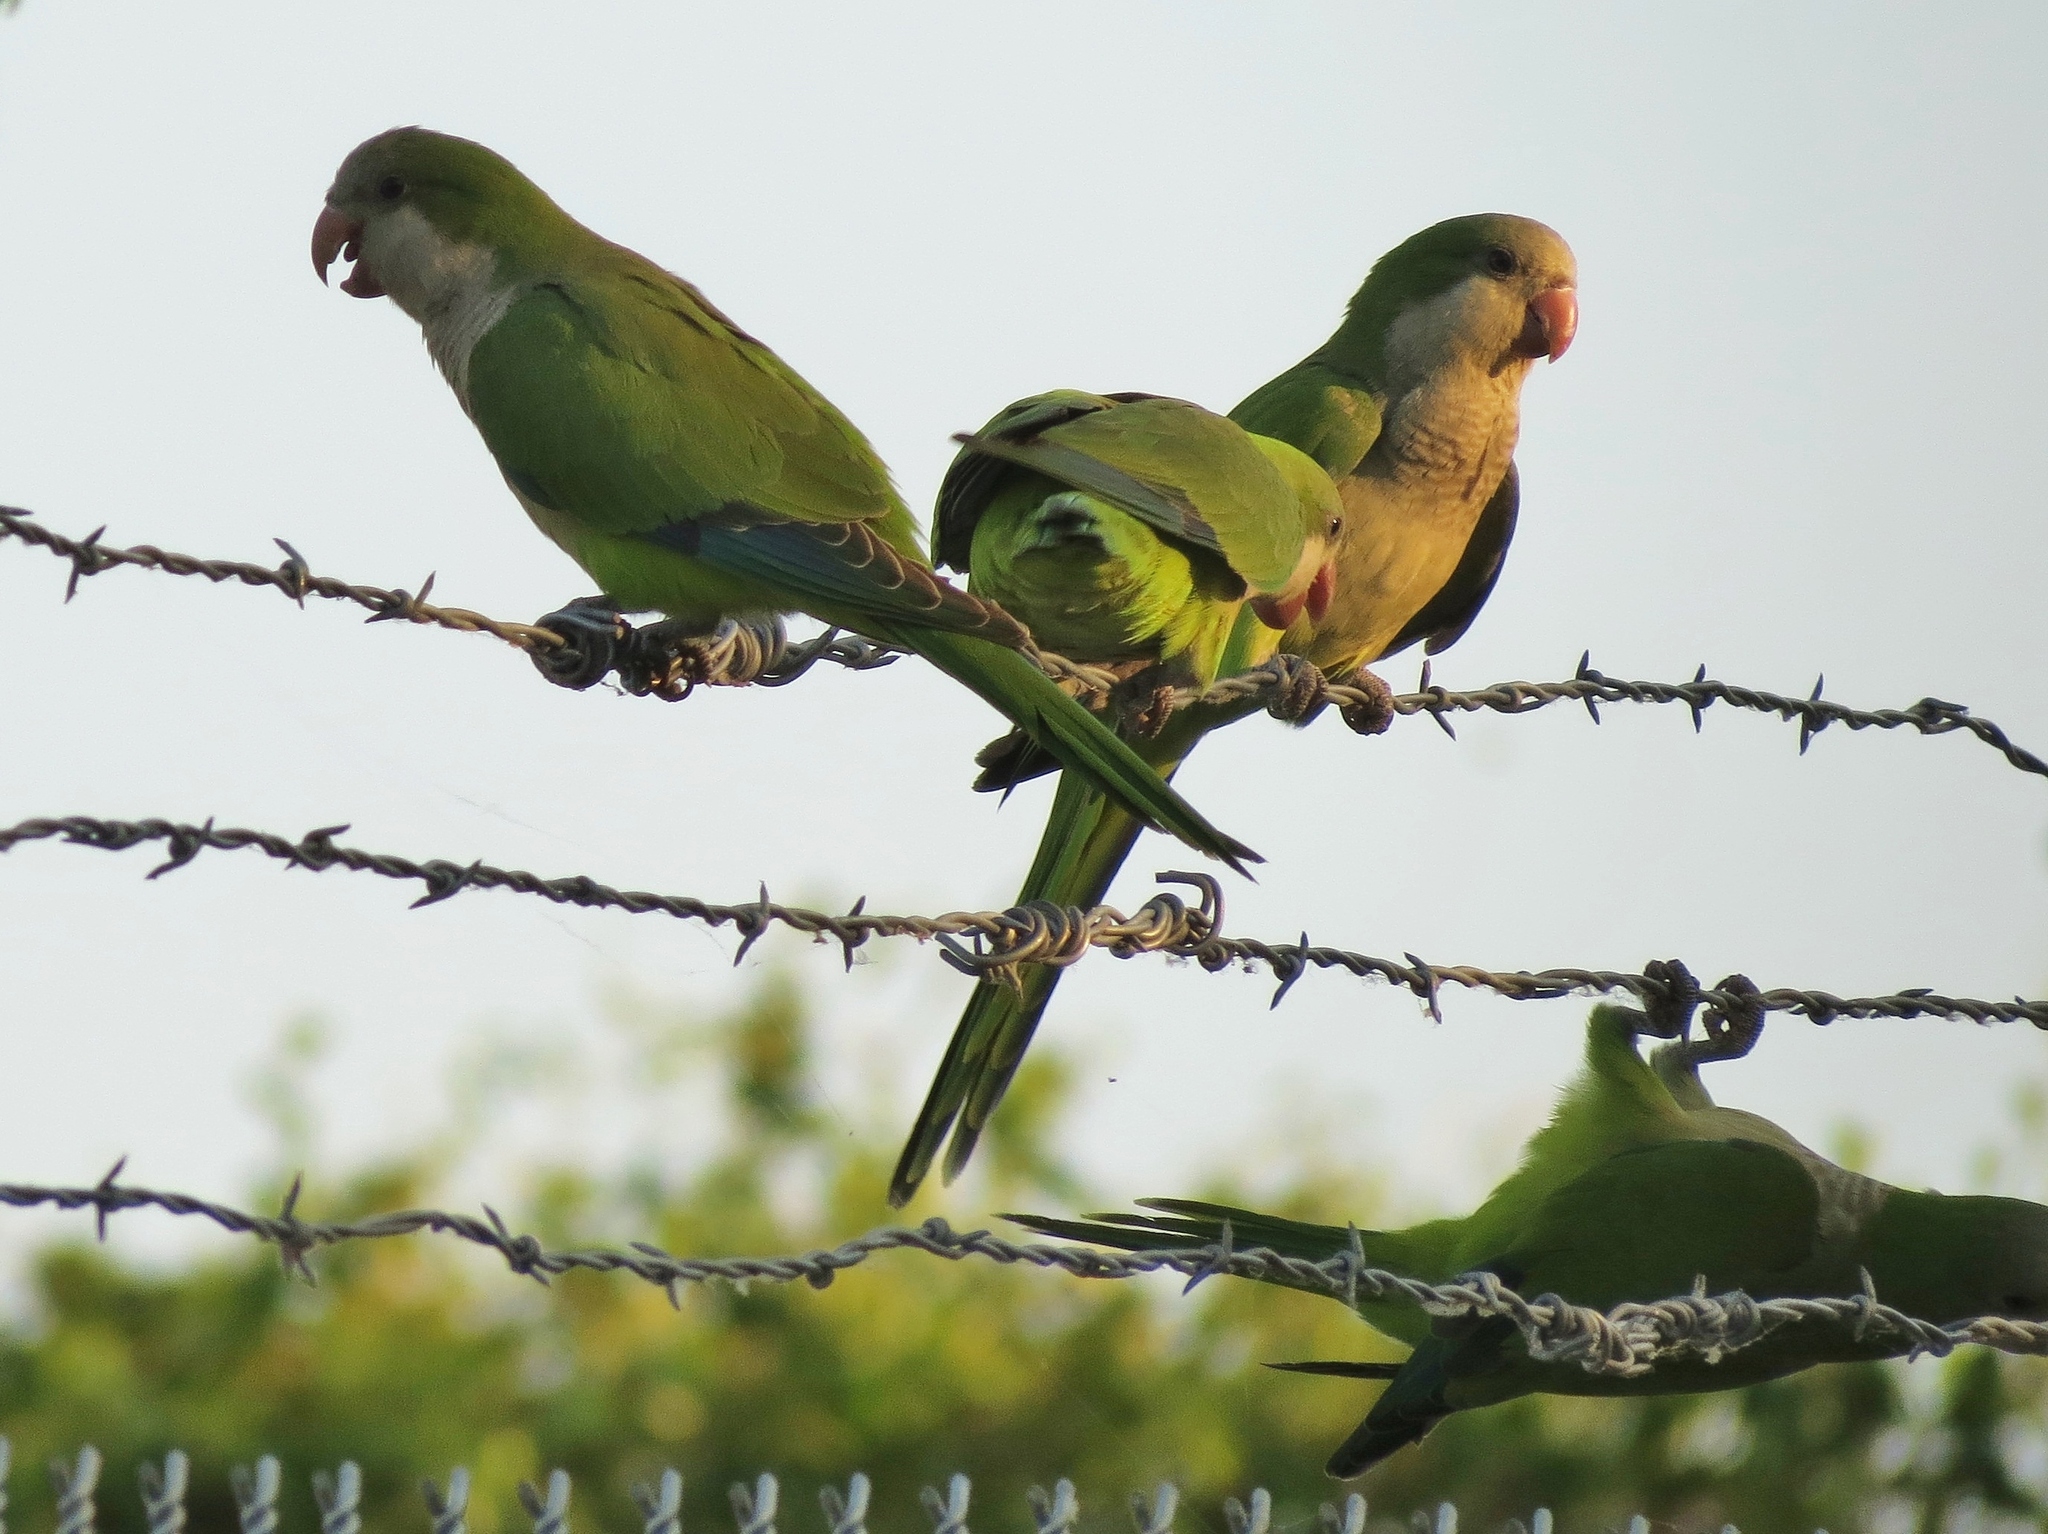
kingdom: Animalia
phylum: Chordata
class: Aves
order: Psittaciformes
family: Psittacidae
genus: Myiopsitta
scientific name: Myiopsitta monachus
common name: Monk parakeet
